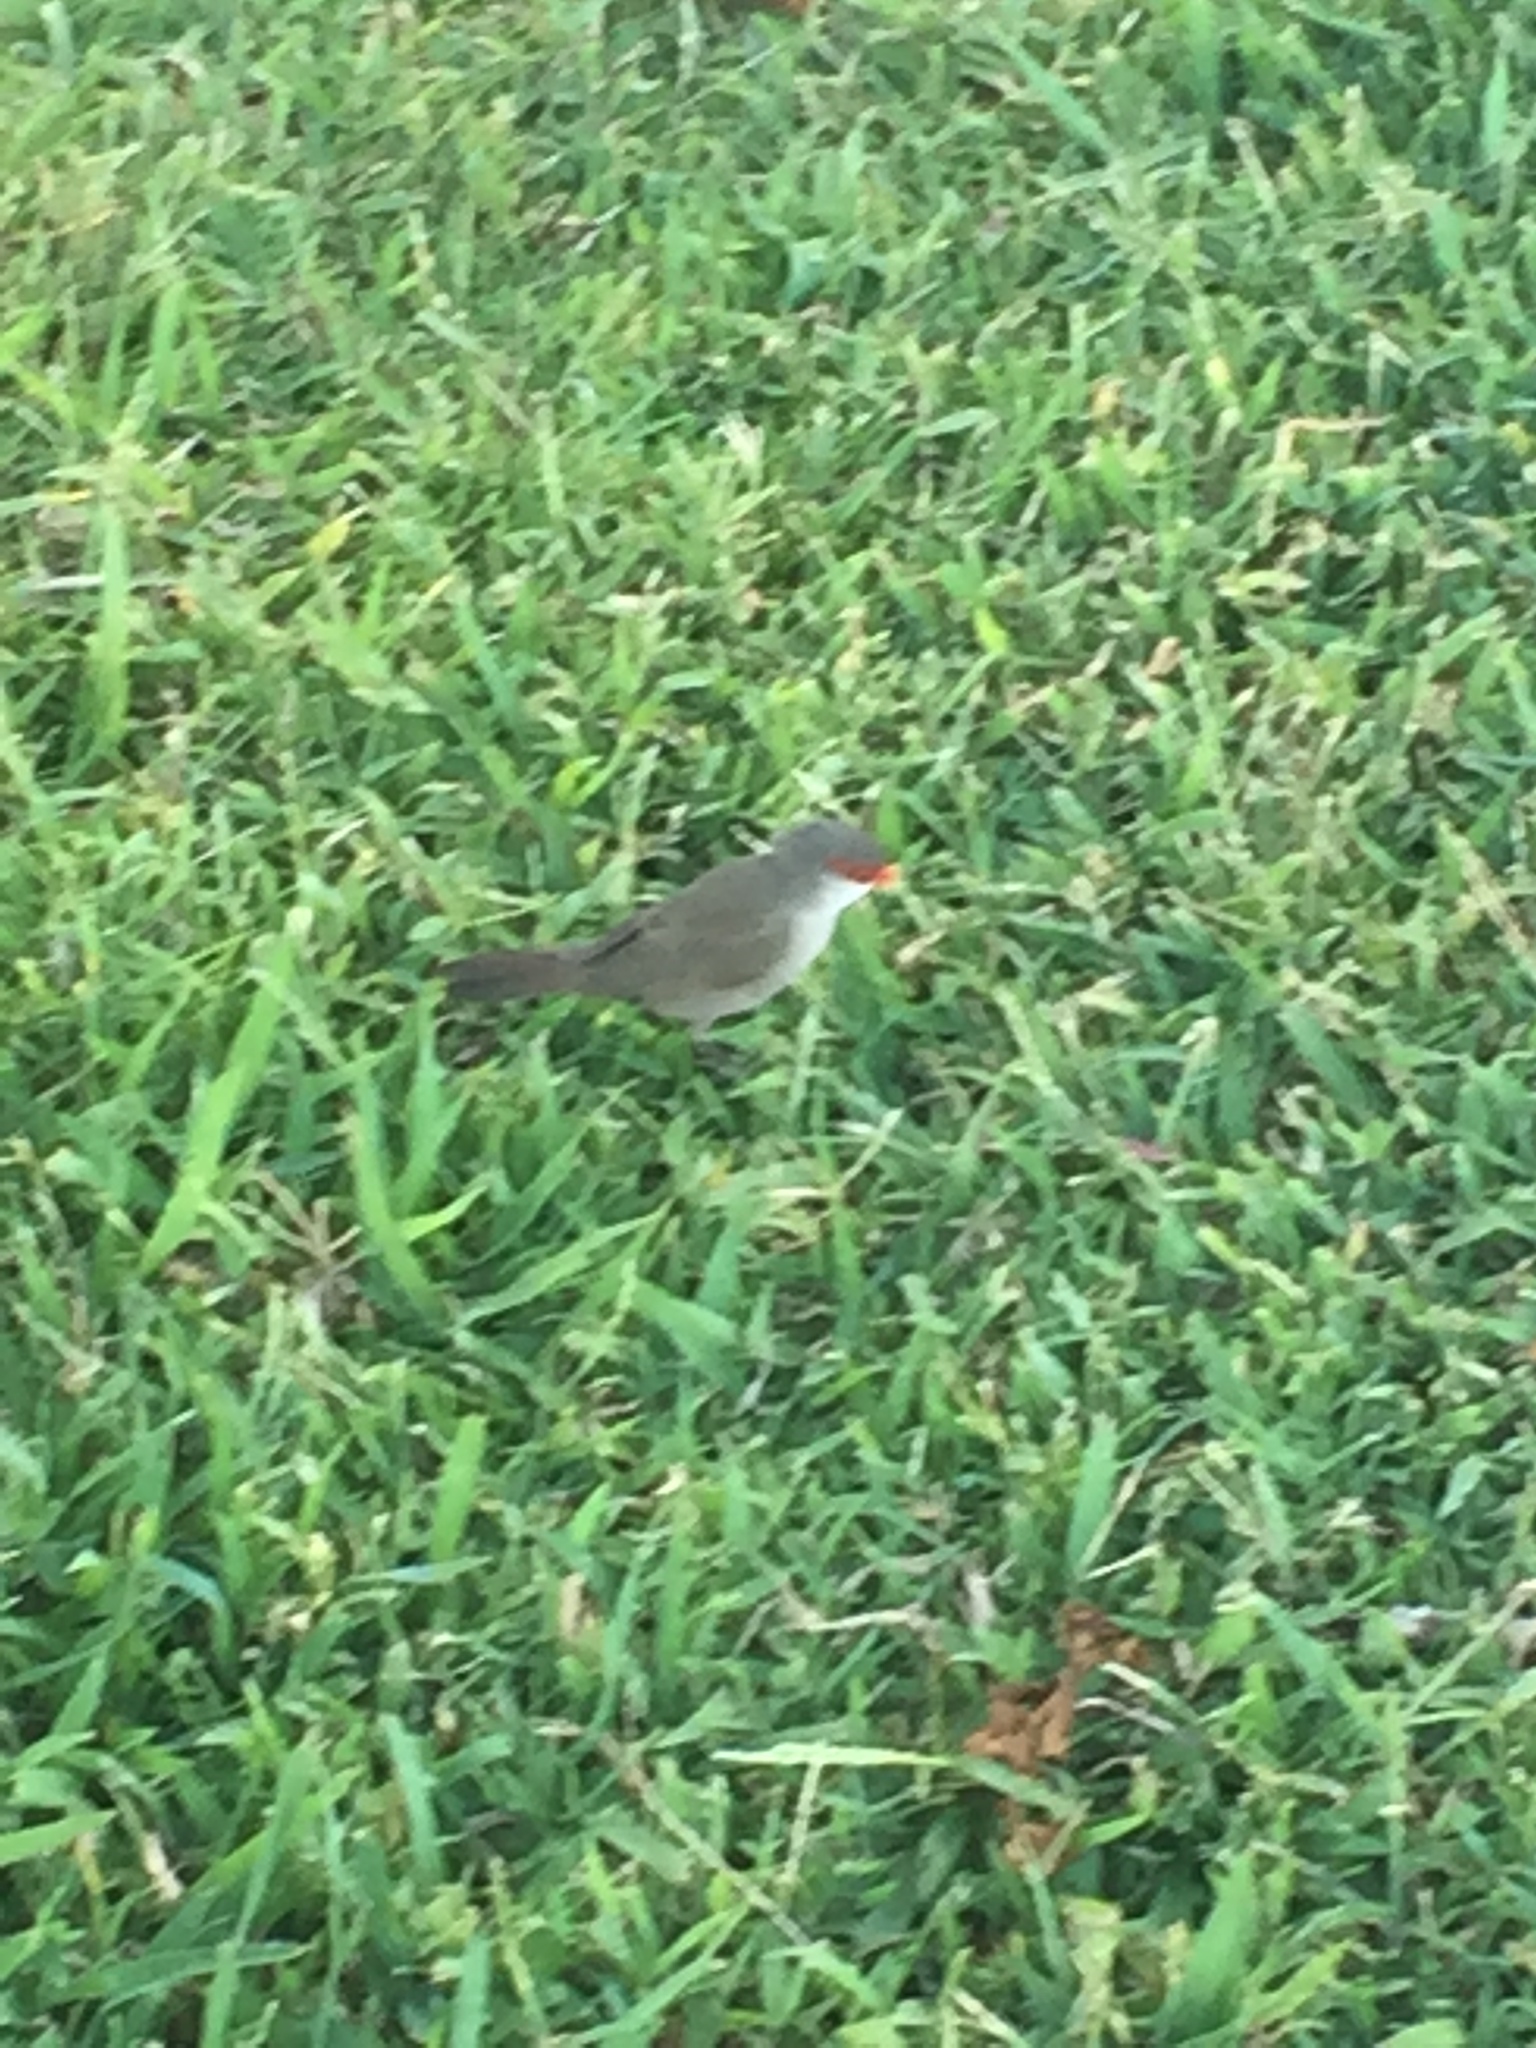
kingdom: Animalia
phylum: Chordata
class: Aves
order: Passeriformes
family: Estrildidae
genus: Estrilda
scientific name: Estrilda astrild
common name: Common waxbill
